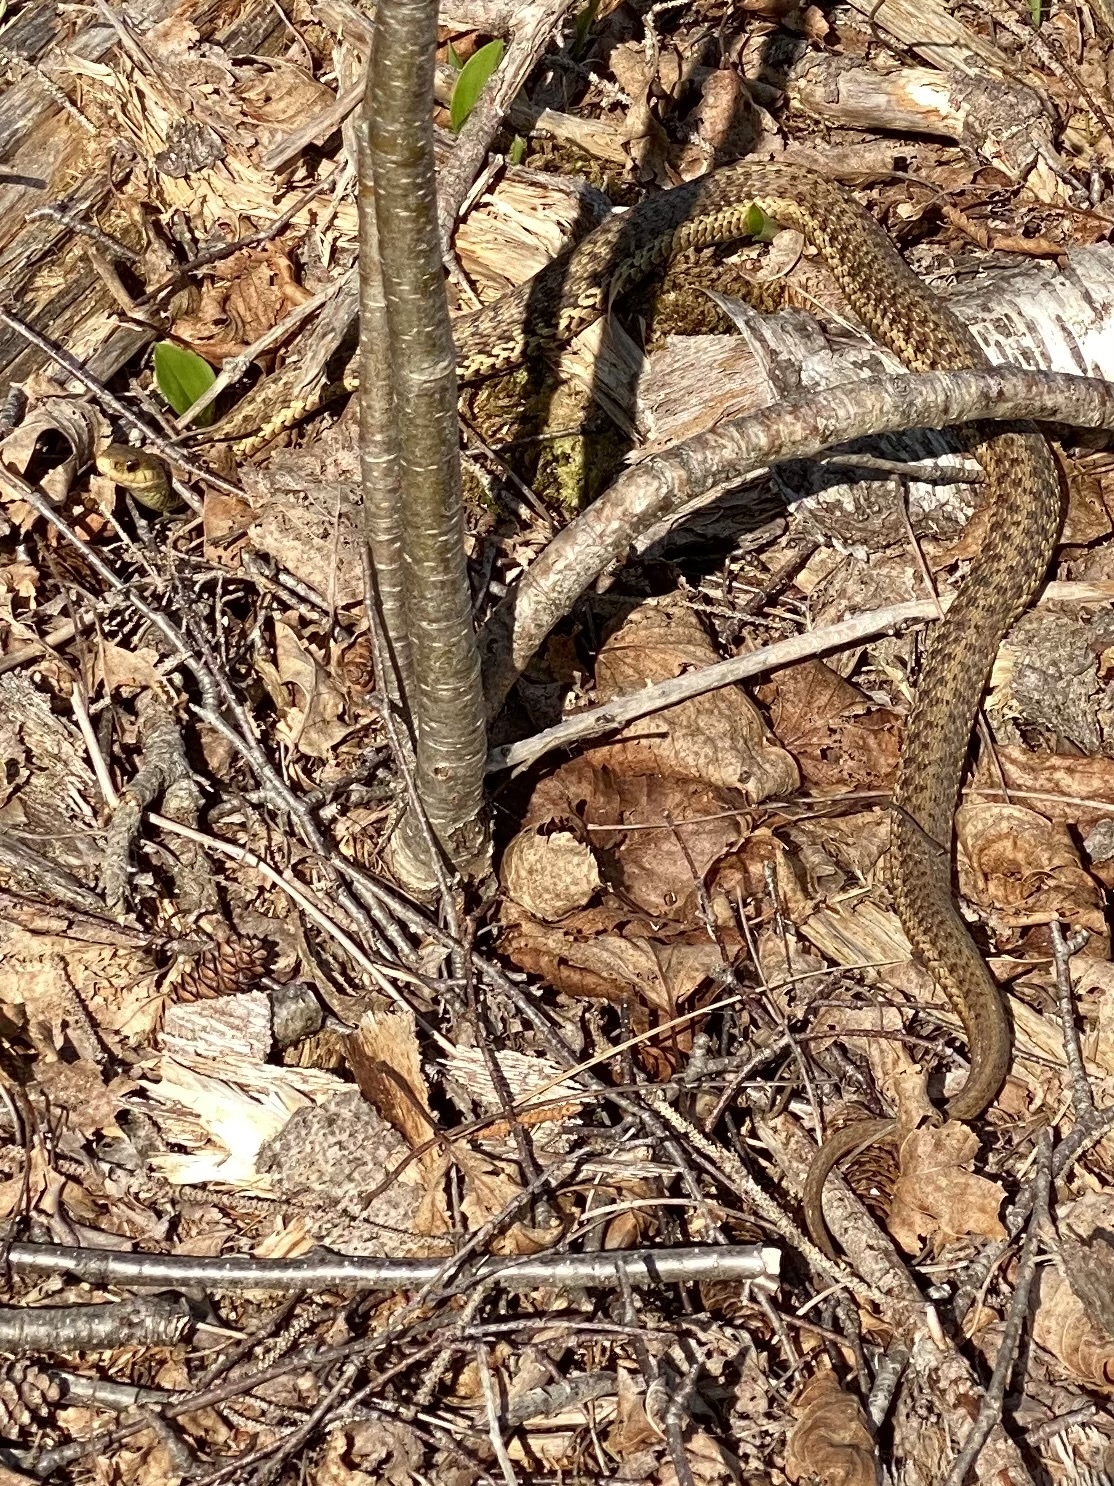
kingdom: Animalia
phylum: Chordata
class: Squamata
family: Colubridae
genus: Thamnophis
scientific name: Thamnophis sirtalis
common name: Common garter snake
